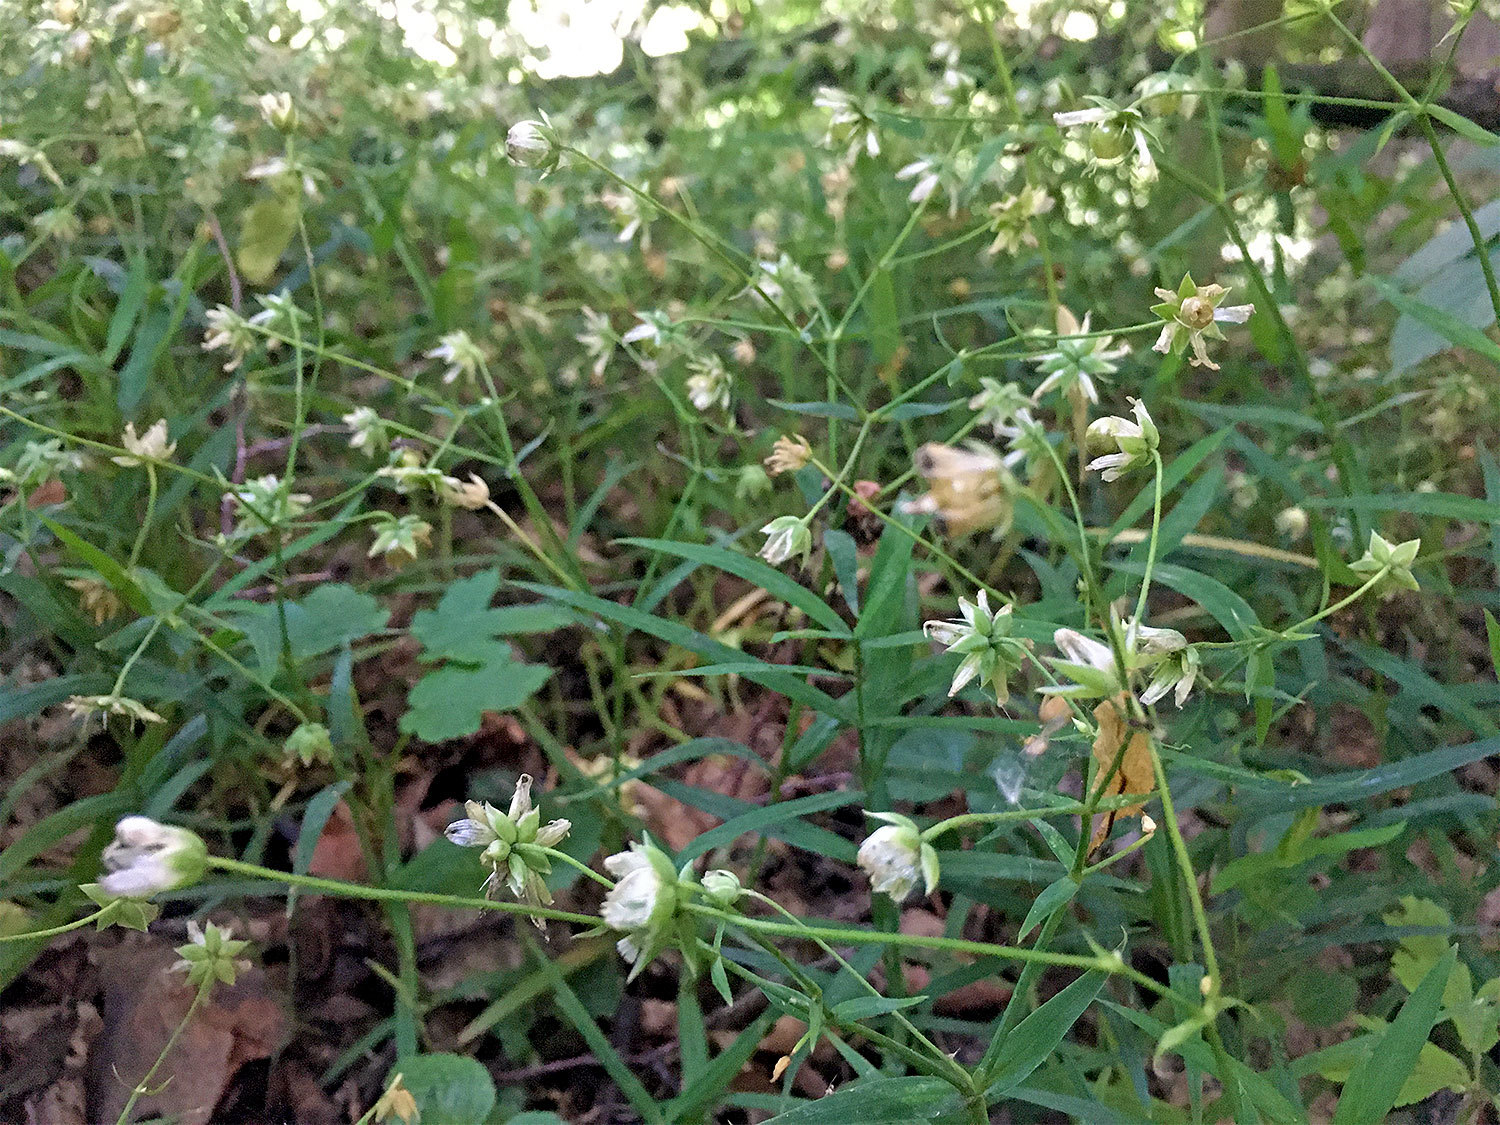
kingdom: Plantae
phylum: Tracheophyta
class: Magnoliopsida
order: Caryophyllales
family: Caryophyllaceae
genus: Rabelera
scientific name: Rabelera holostea
